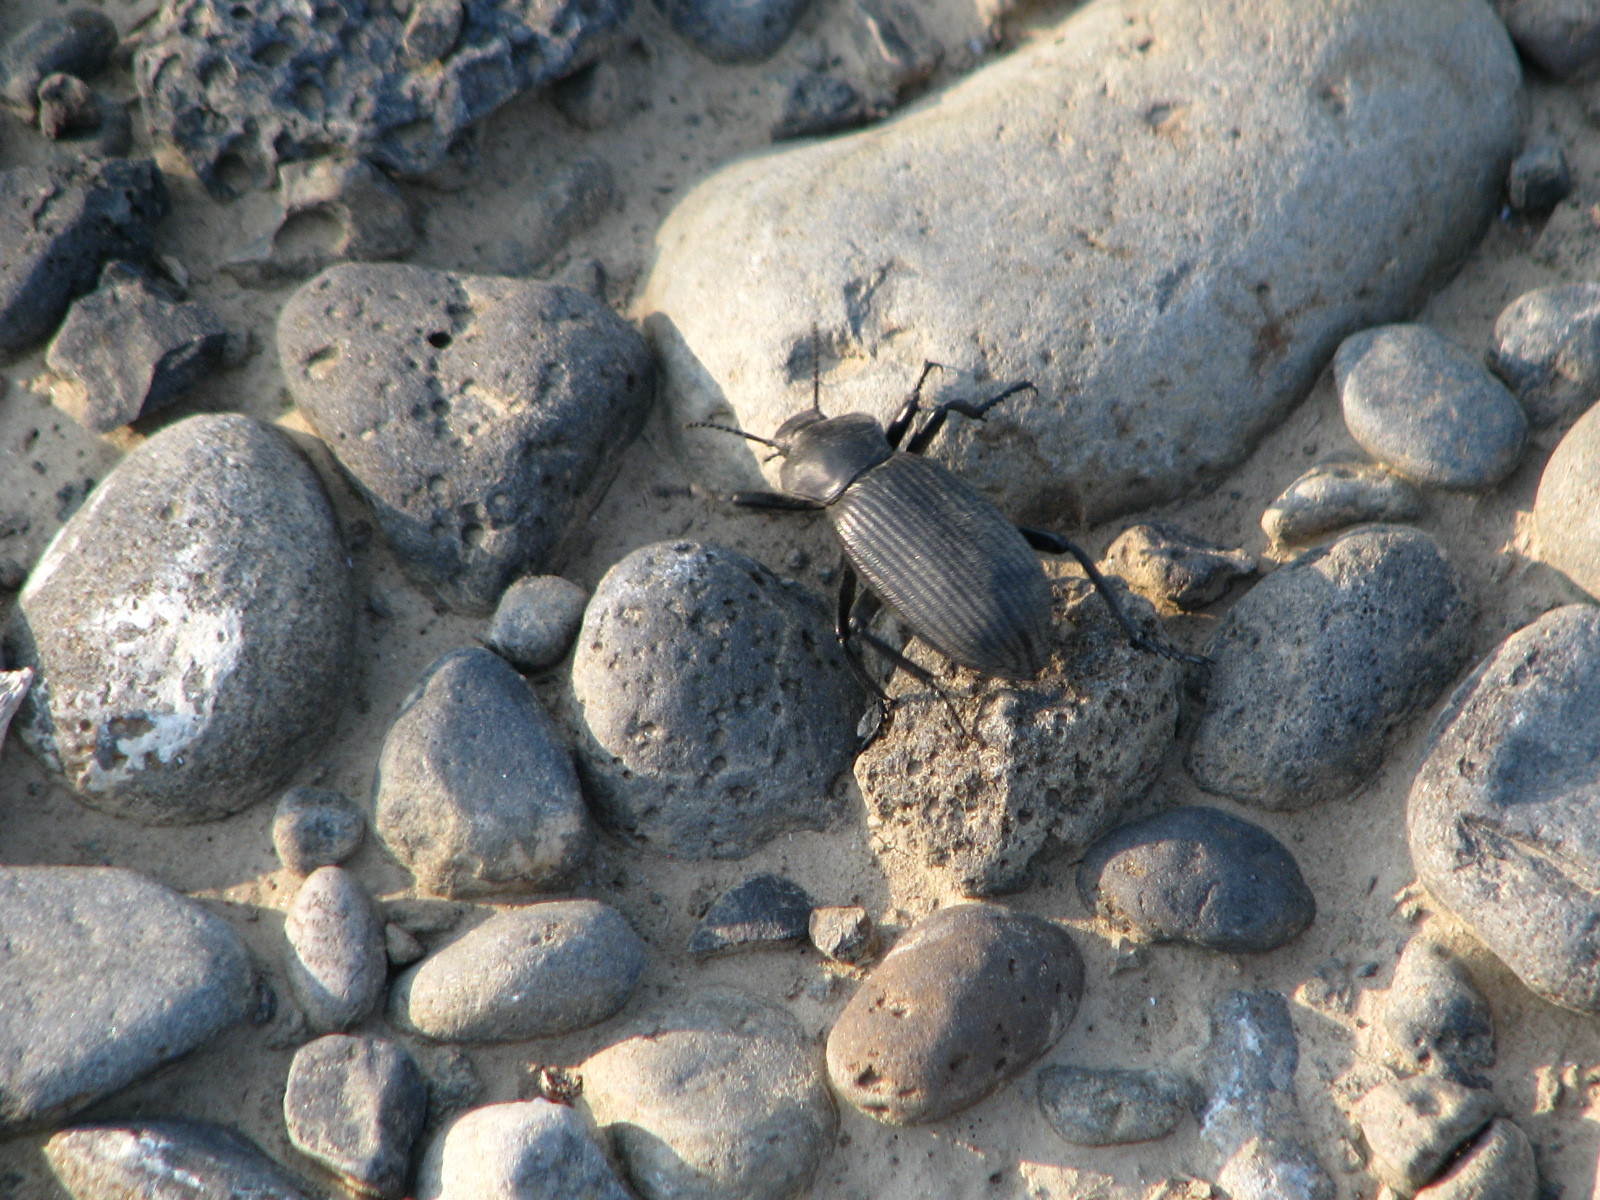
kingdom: Animalia
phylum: Arthropoda
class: Insecta
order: Coleoptera
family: Tenebrionidae
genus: Eleodes
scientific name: Eleodes obscura
